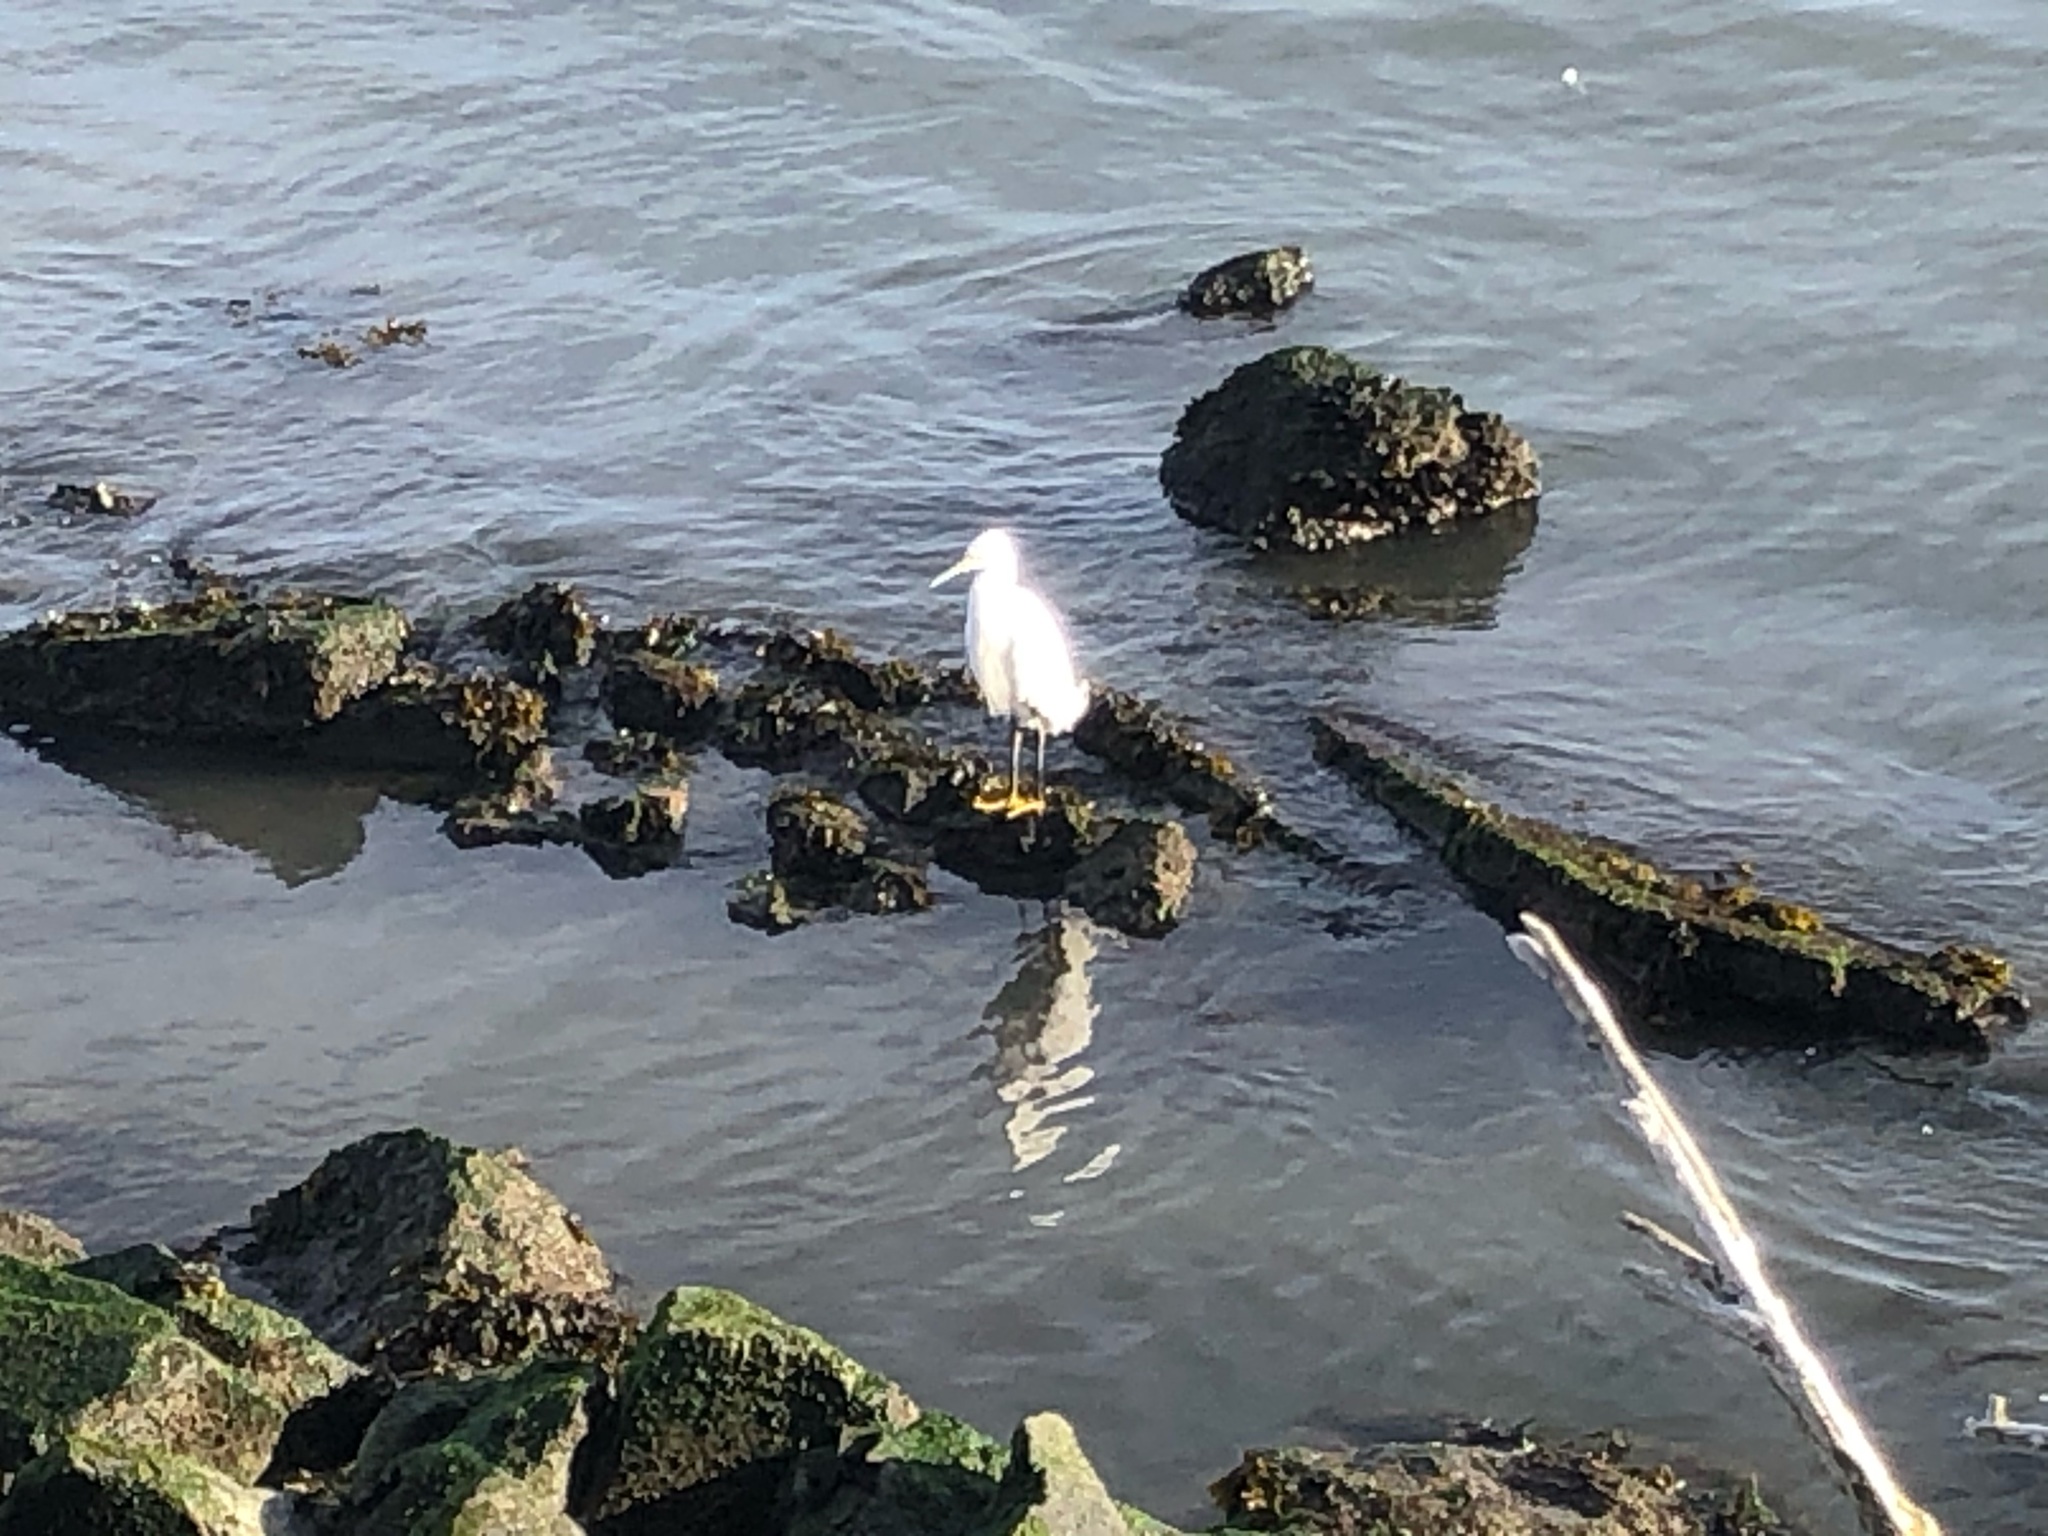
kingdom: Animalia
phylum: Chordata
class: Aves
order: Pelecaniformes
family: Ardeidae
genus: Egretta
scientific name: Egretta thula
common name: Snowy egret
